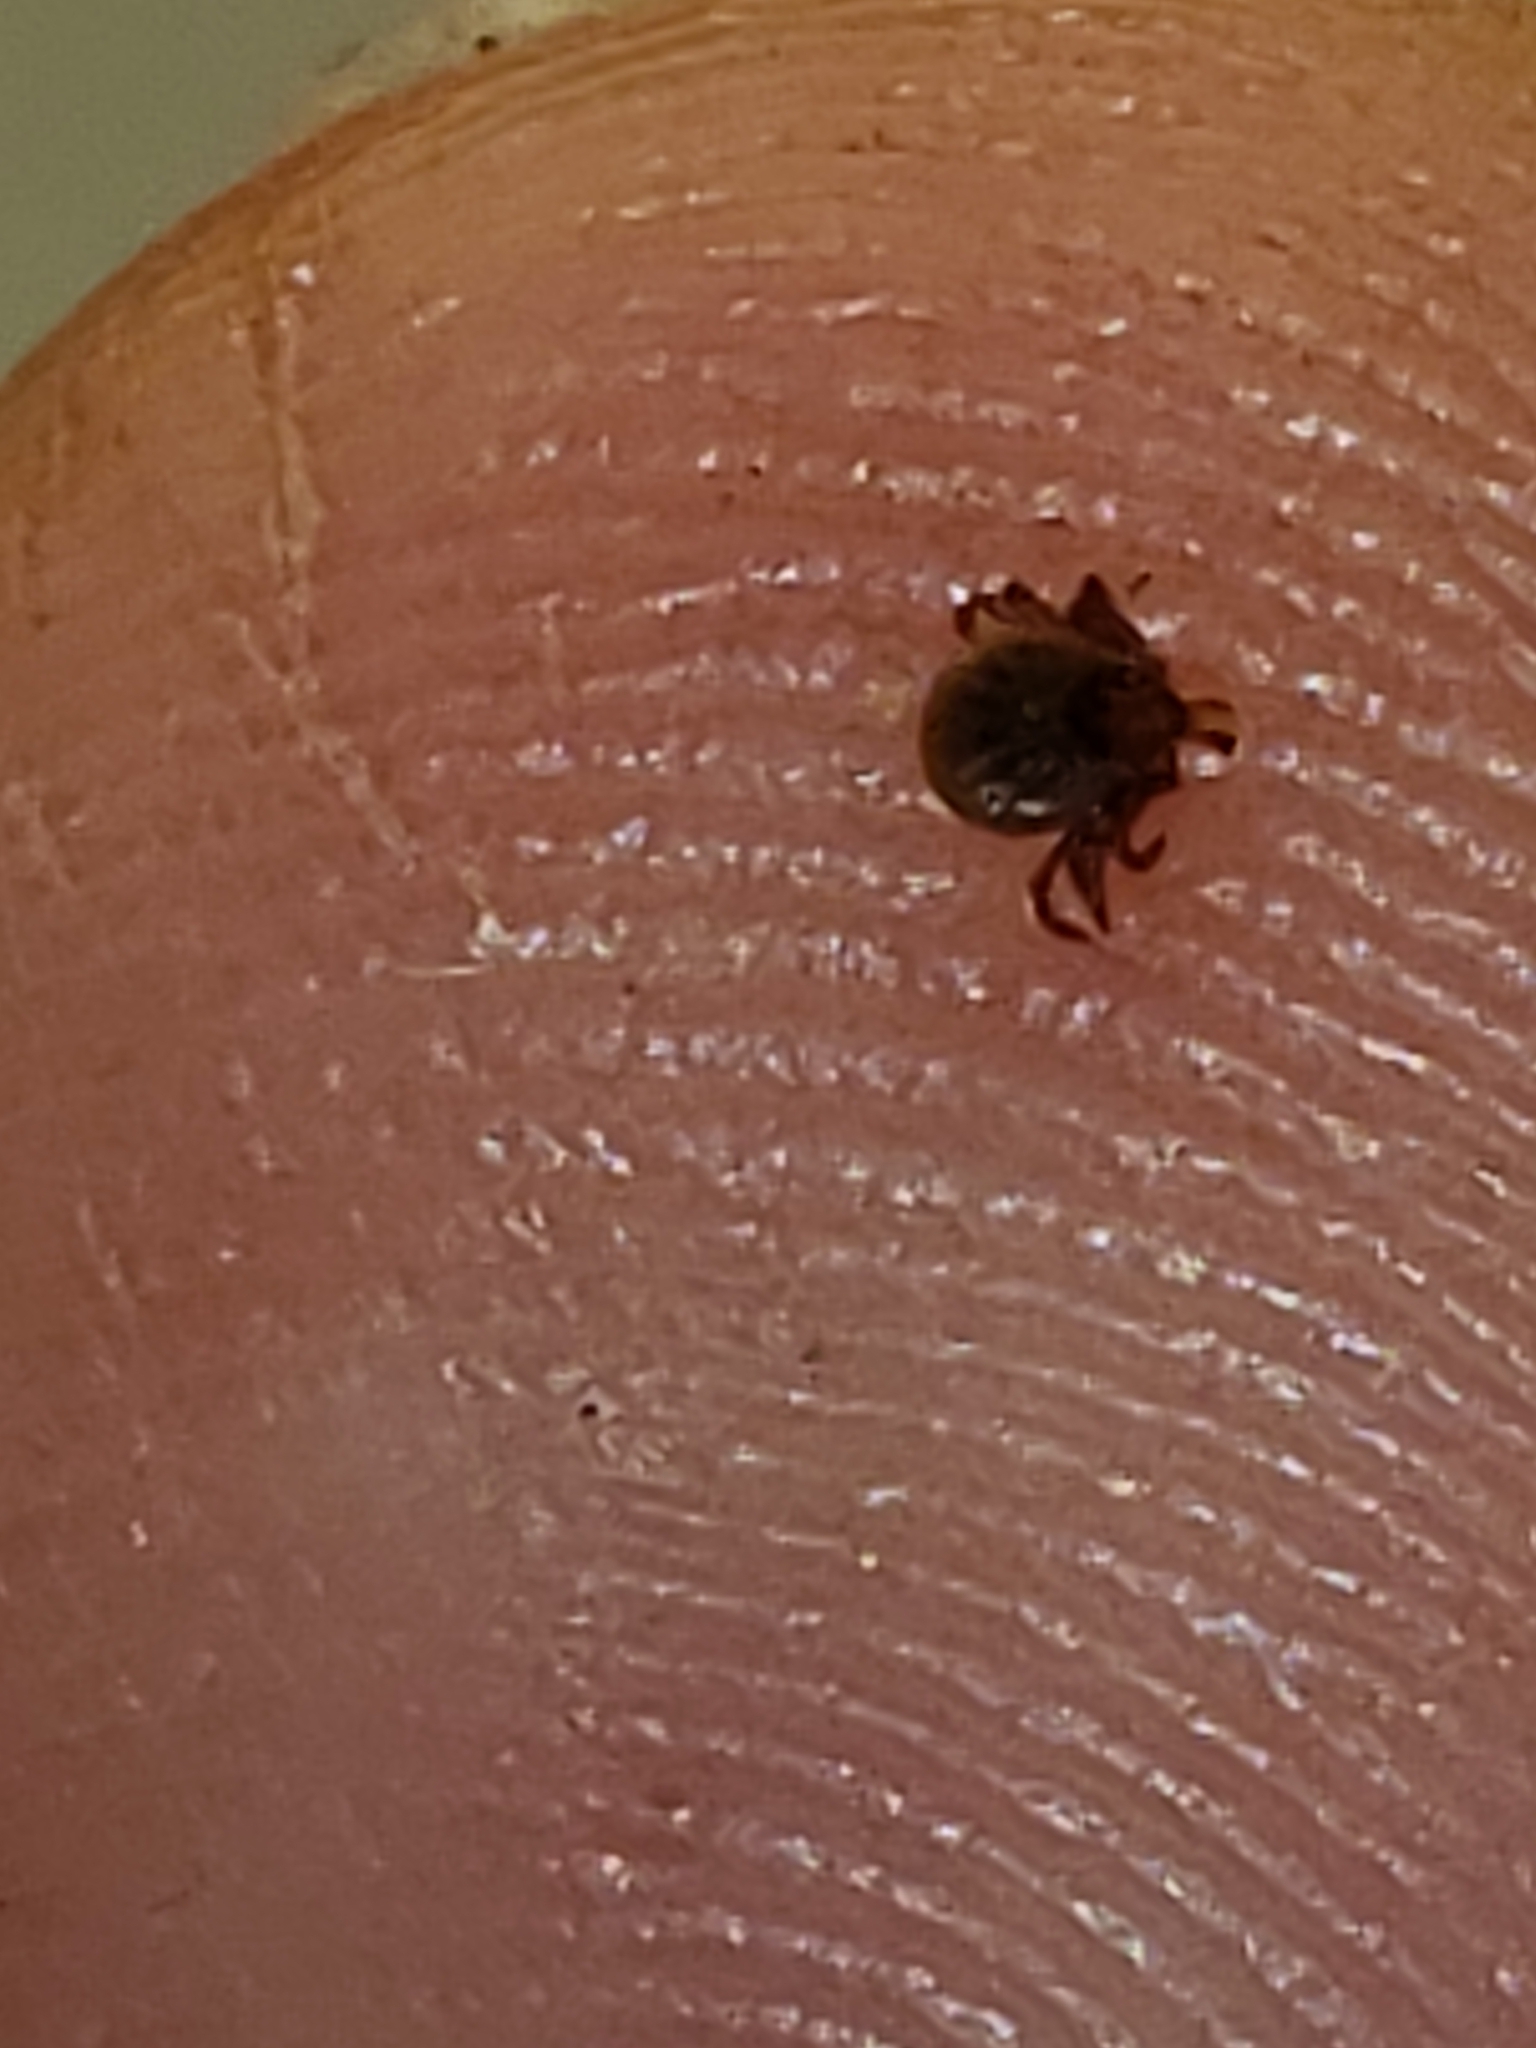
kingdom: Animalia
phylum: Arthropoda
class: Arachnida
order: Ixodida
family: Ixodidae
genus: Amblyomma
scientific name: Amblyomma americanum
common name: Lone star tick
